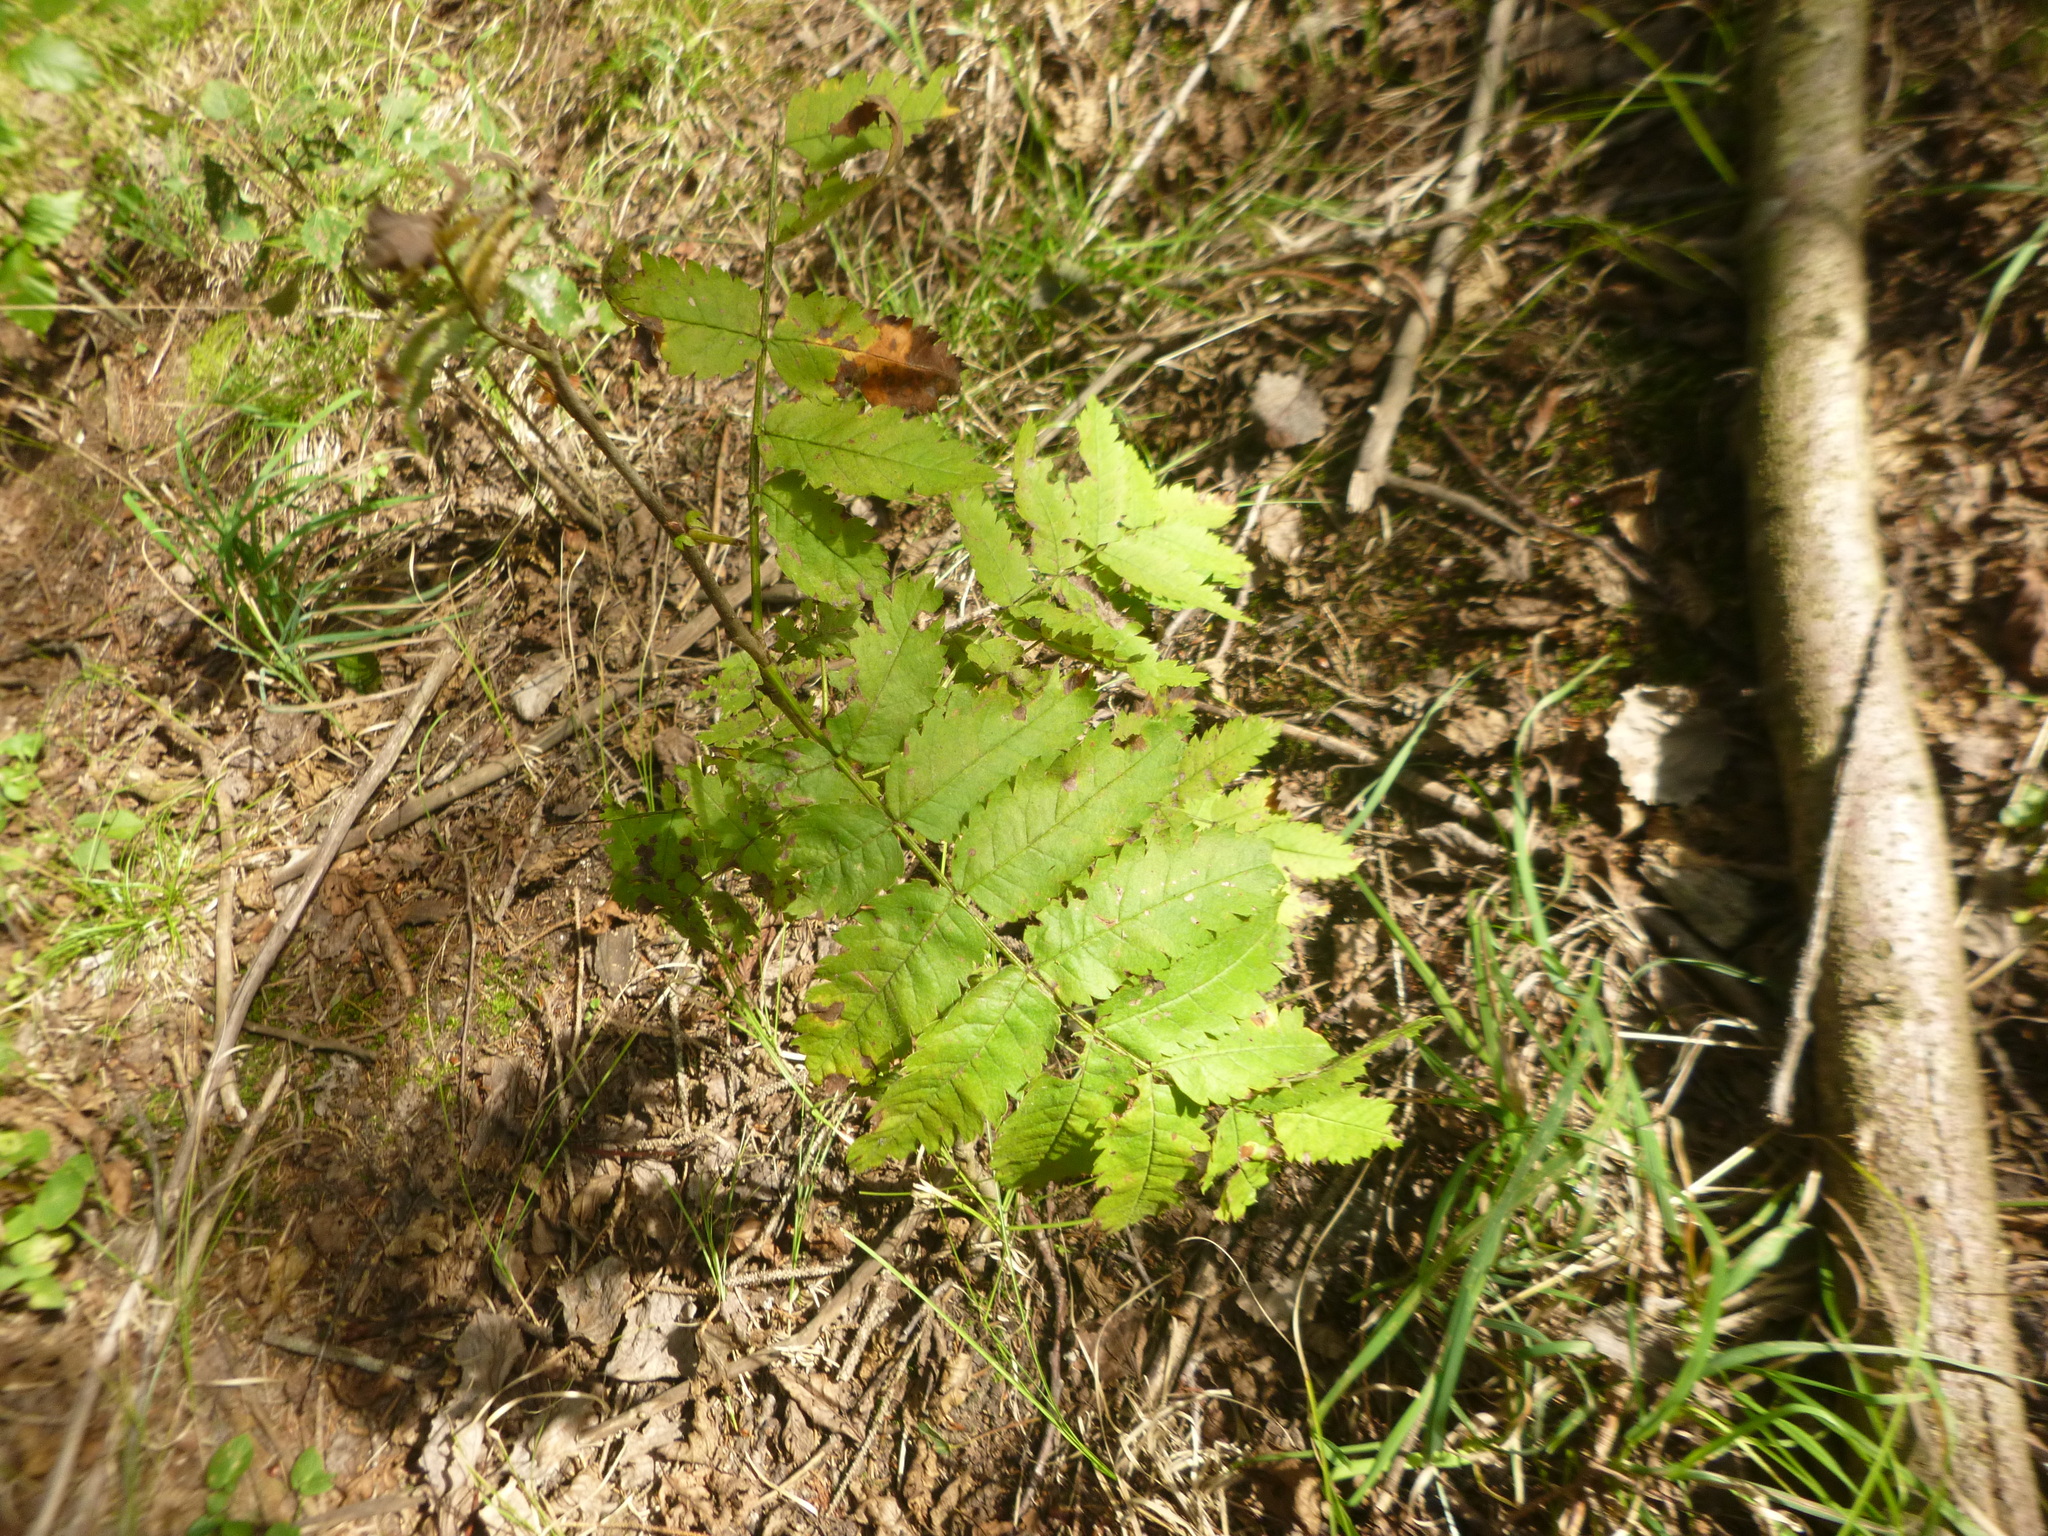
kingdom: Plantae
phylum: Tracheophyta
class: Magnoliopsida
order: Rosales
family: Rosaceae
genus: Sorbus
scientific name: Sorbus aucuparia
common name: Rowan
